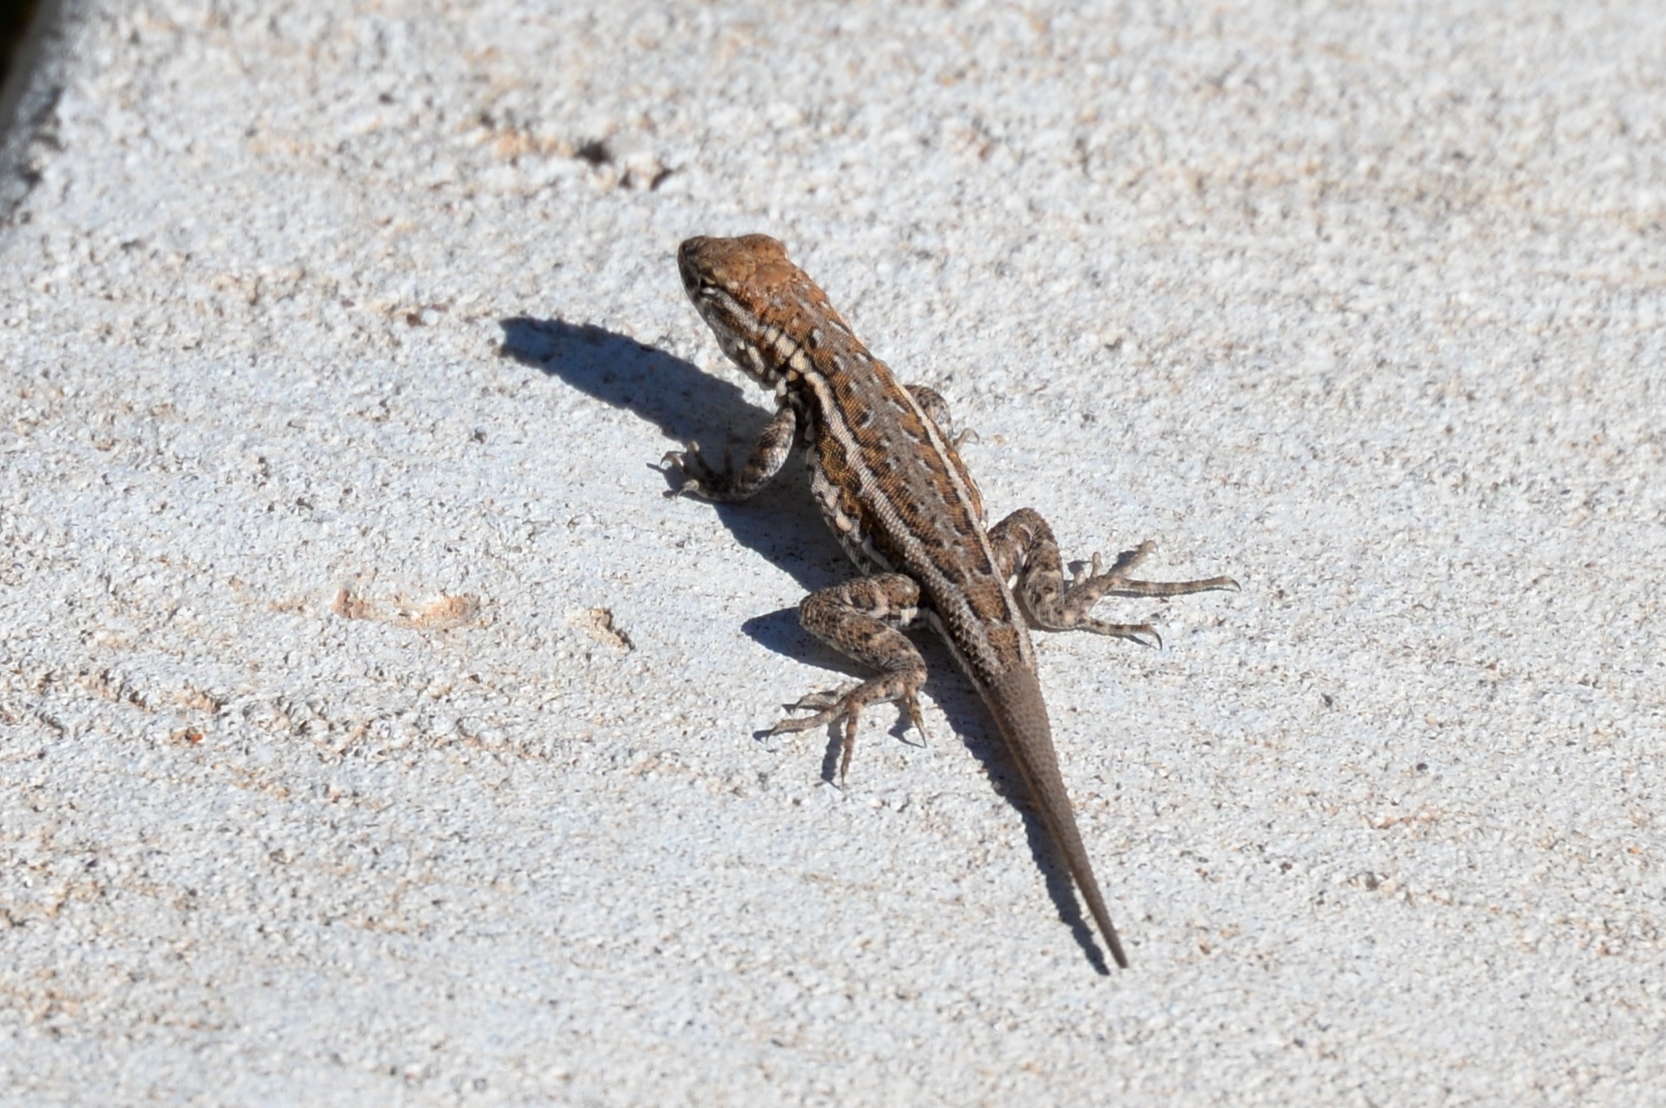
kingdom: Animalia
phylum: Chordata
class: Squamata
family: Phrynosomatidae
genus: Uta
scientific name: Uta stansburiana
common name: Side-blotched lizard
